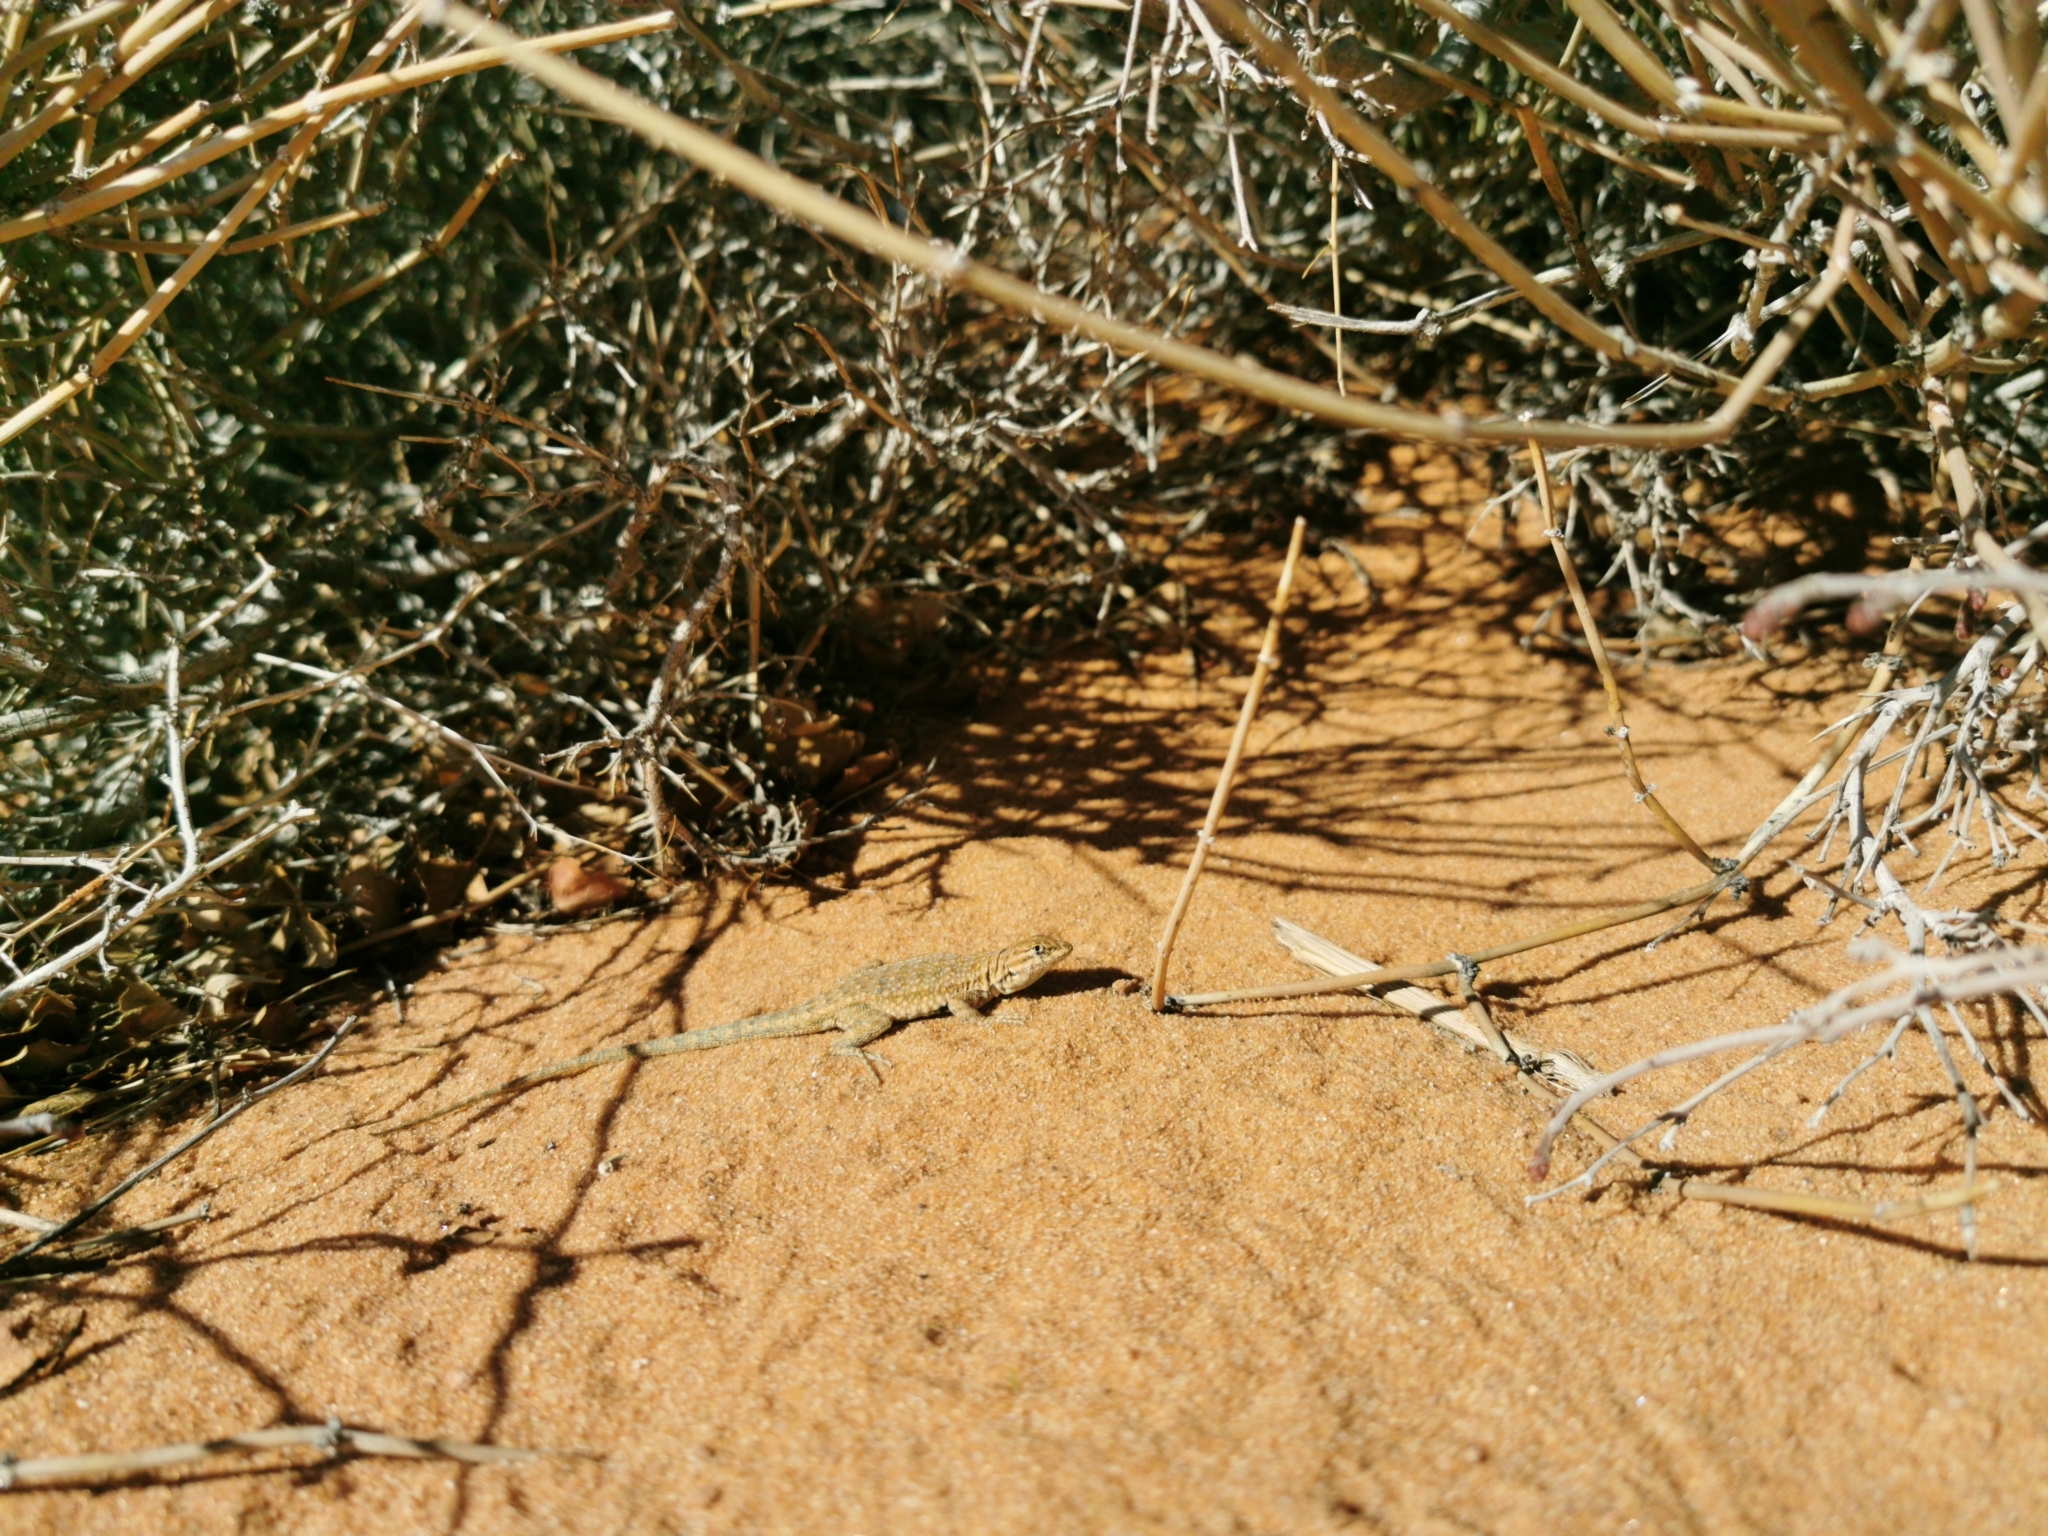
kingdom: Animalia
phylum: Chordata
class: Squamata
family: Phrynosomatidae
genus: Uta
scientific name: Uta stansburiana
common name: Side-blotched lizard
